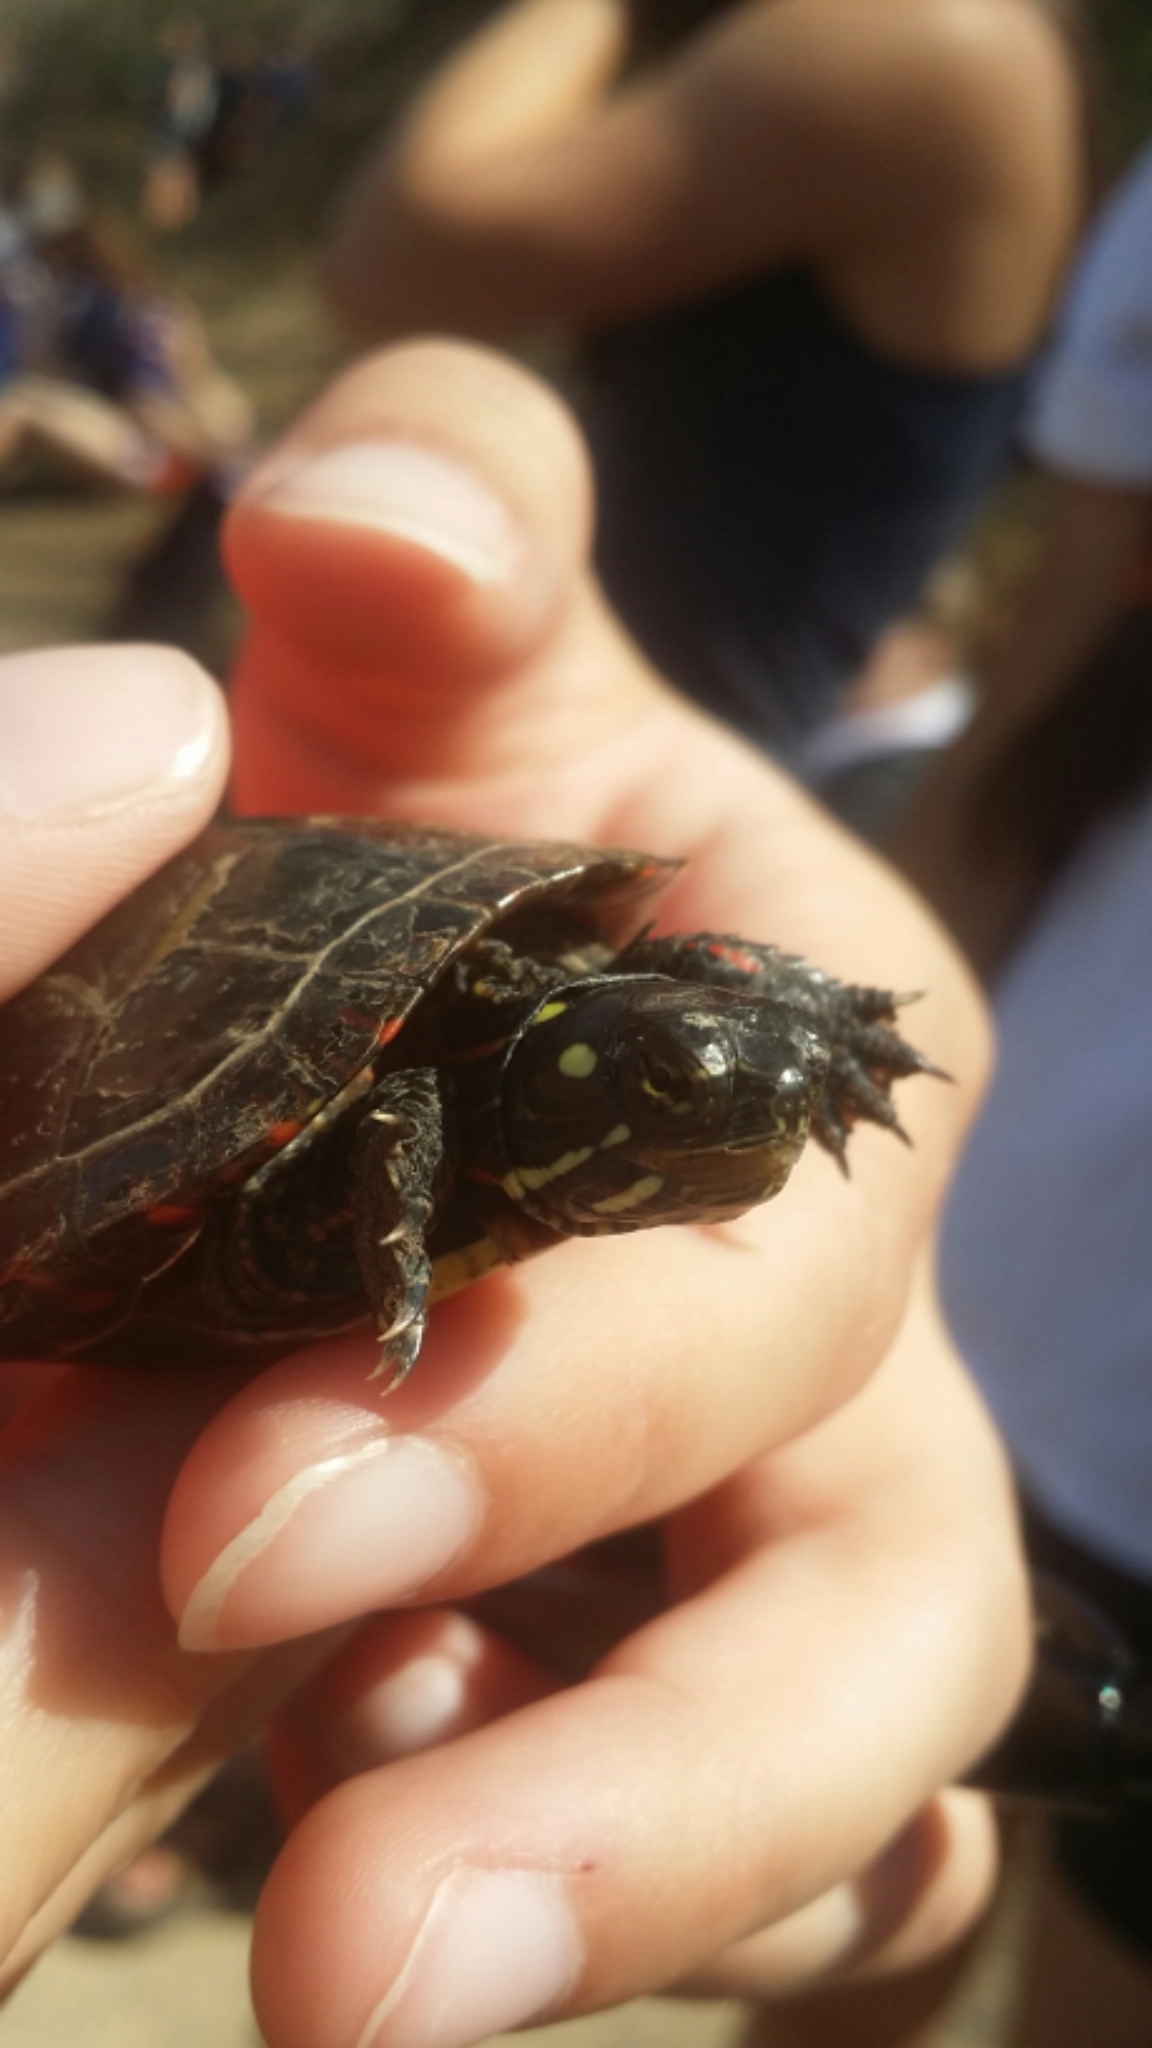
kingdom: Animalia
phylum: Chordata
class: Testudines
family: Emydidae
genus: Chrysemys
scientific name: Chrysemys picta
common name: Painted turtle
